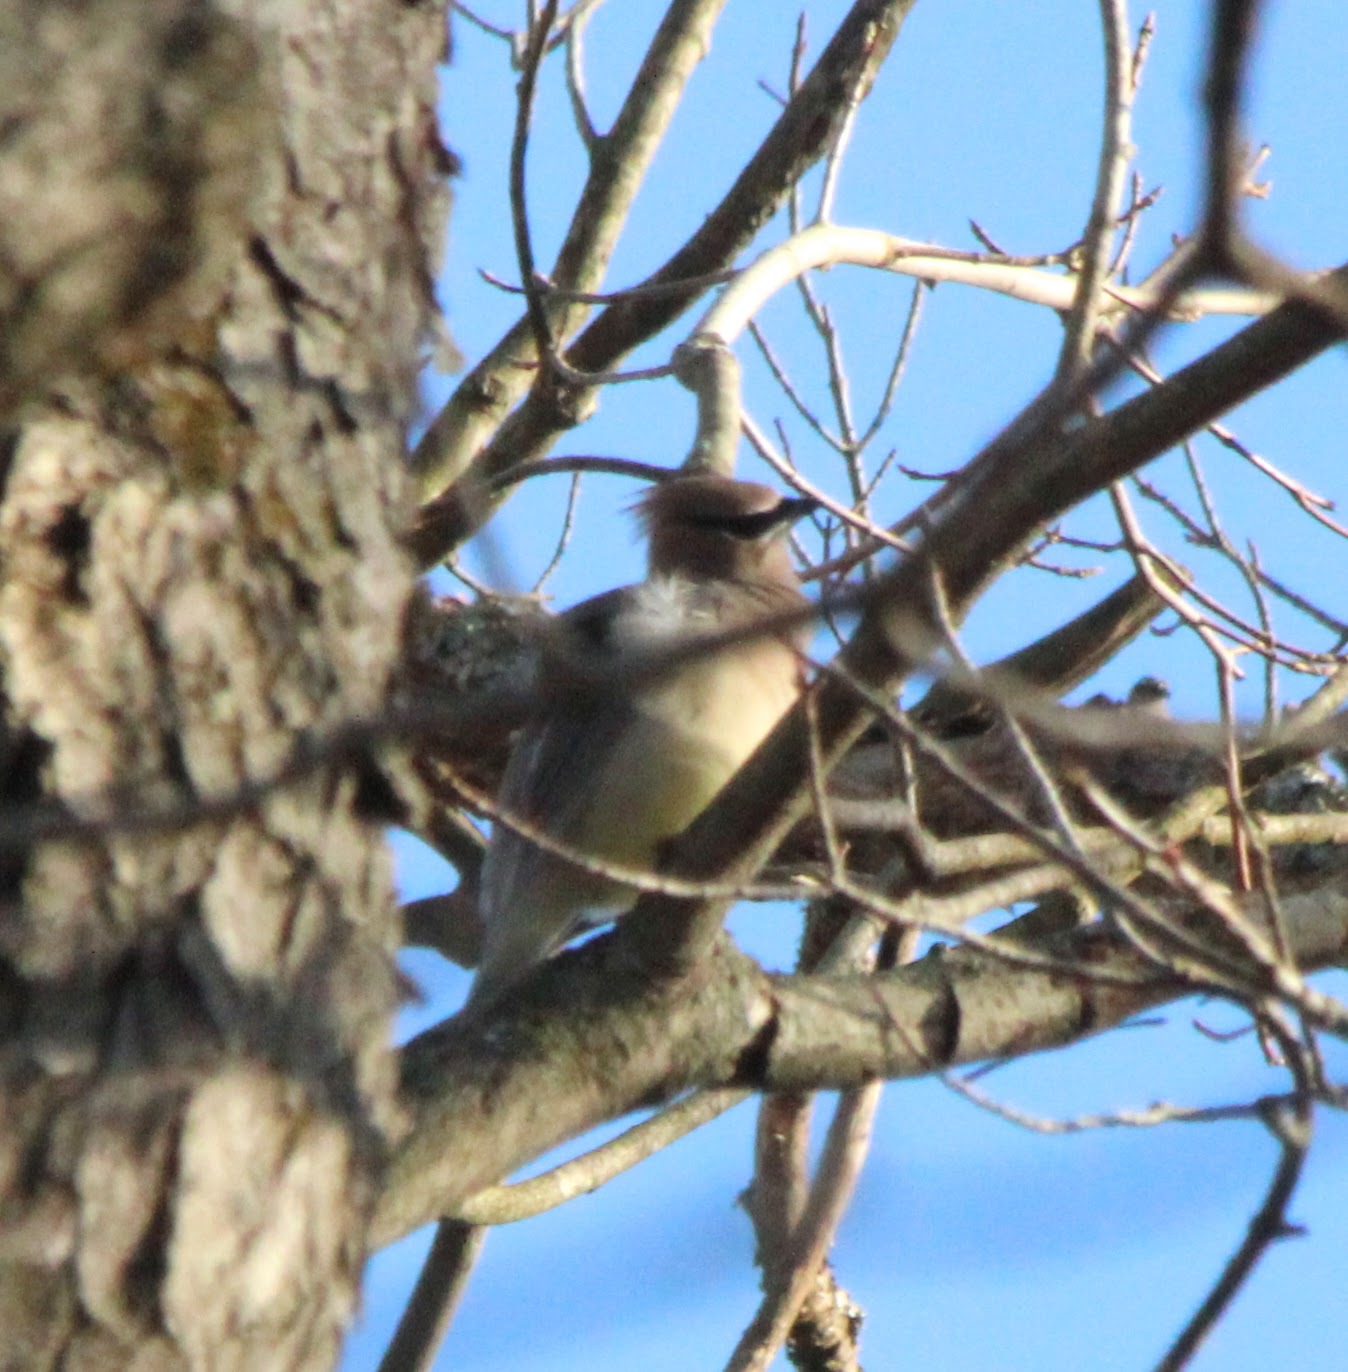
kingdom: Animalia
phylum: Chordata
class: Aves
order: Passeriformes
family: Bombycillidae
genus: Bombycilla
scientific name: Bombycilla cedrorum
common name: Cedar waxwing
